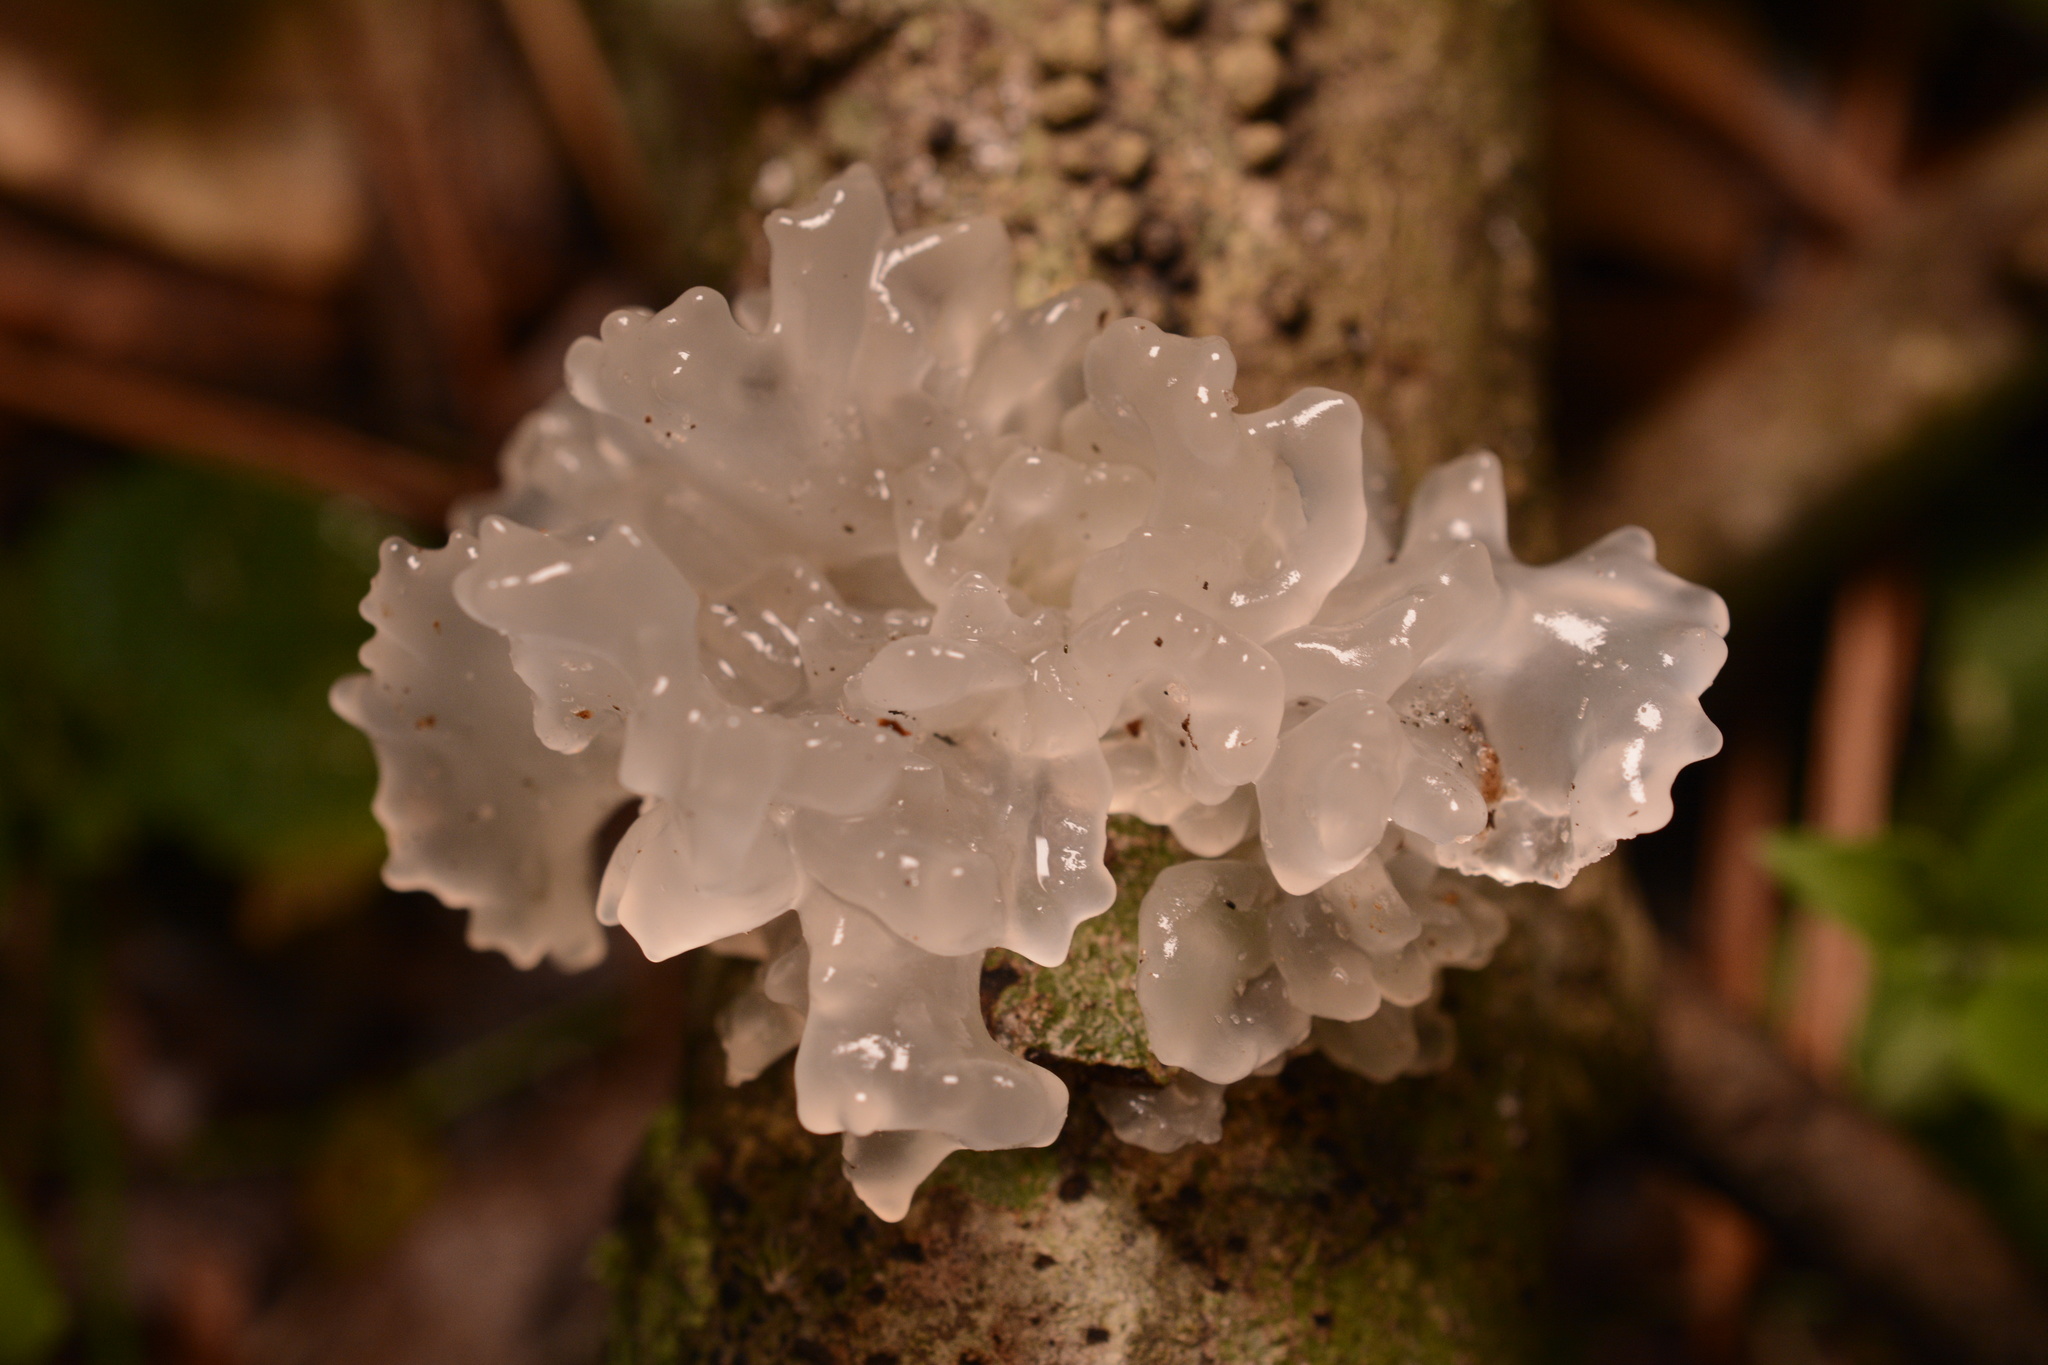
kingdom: Fungi
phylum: Basidiomycota
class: Tremellomycetes
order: Tremellales
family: Tremellaceae
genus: Tremella
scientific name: Tremella fuciformis
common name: Snow fungus
